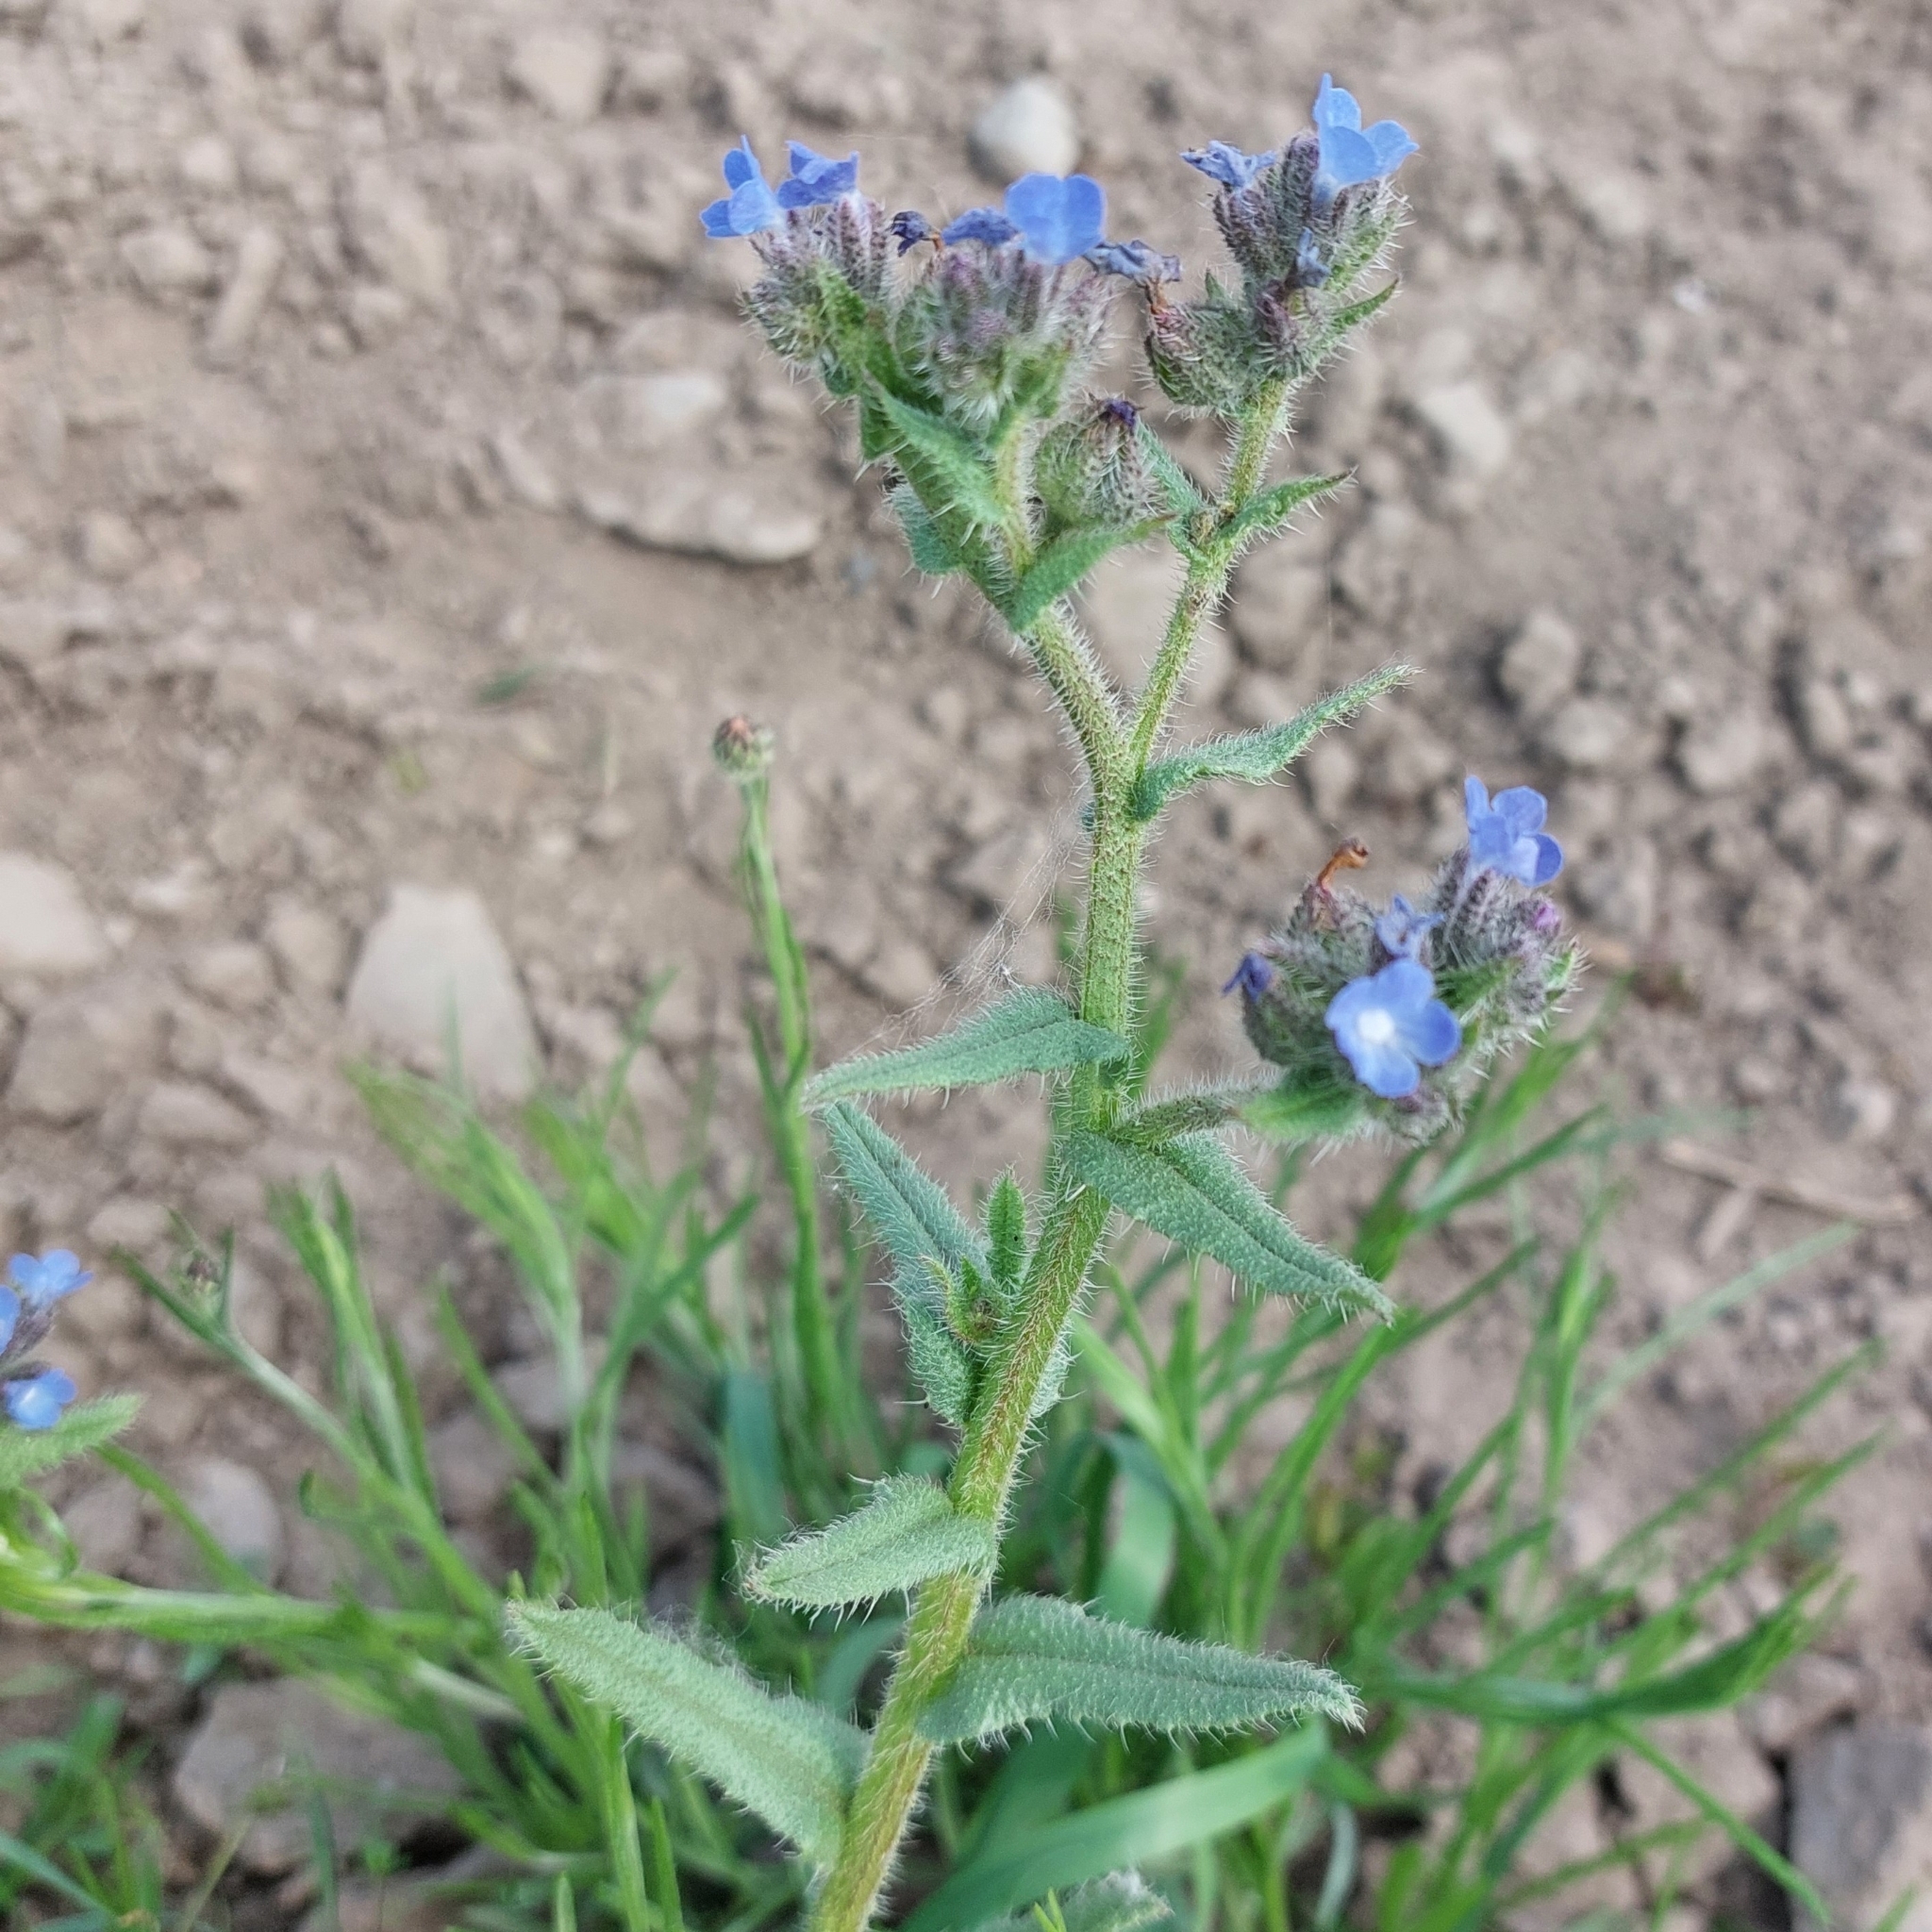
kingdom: Plantae
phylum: Tracheophyta
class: Magnoliopsida
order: Boraginales
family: Boraginaceae
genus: Lycopsis
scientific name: Lycopsis arvensis
